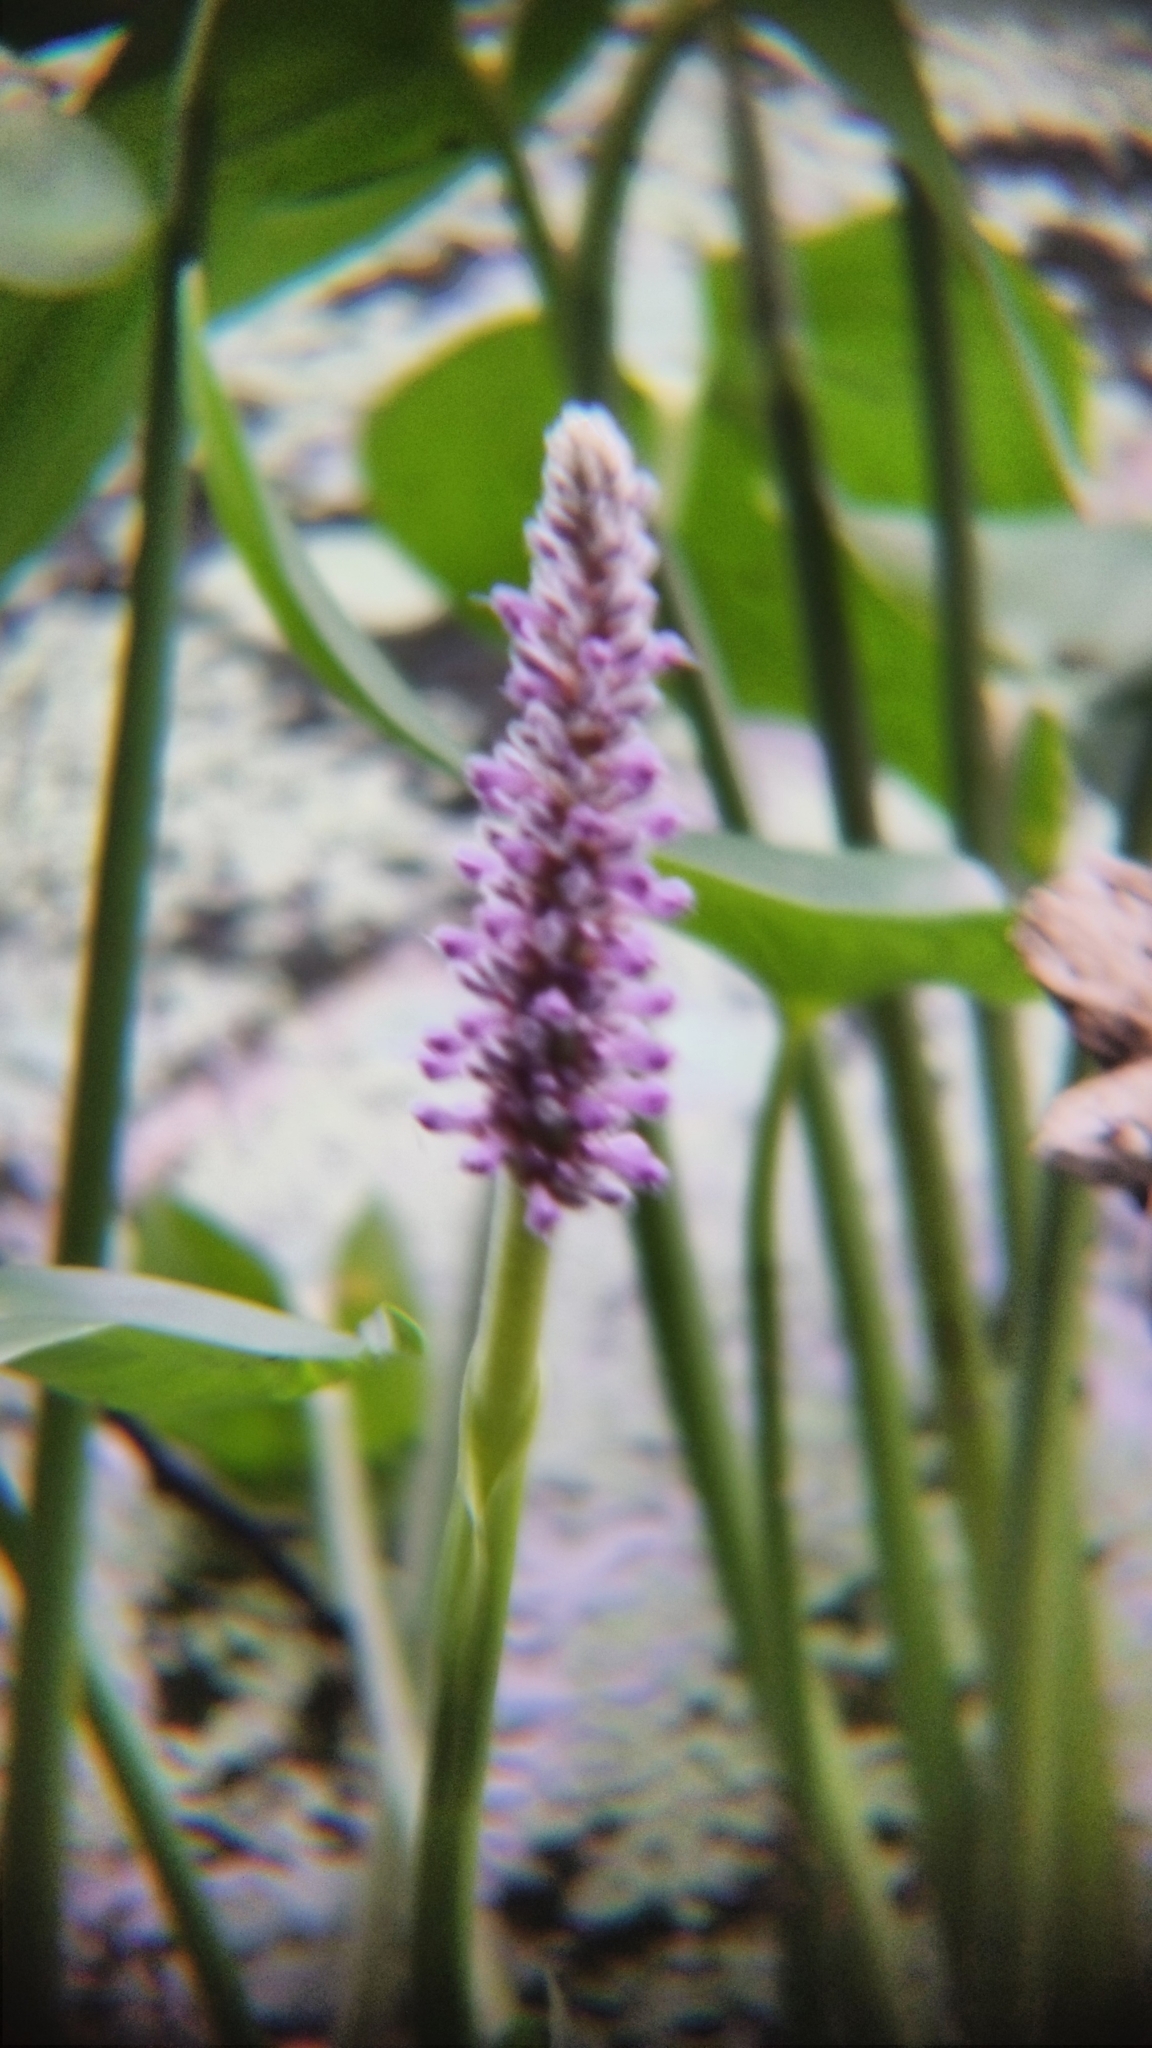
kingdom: Plantae
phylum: Tracheophyta
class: Liliopsida
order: Commelinales
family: Pontederiaceae
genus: Pontederia
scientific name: Pontederia cordata
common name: Pickerelweed
